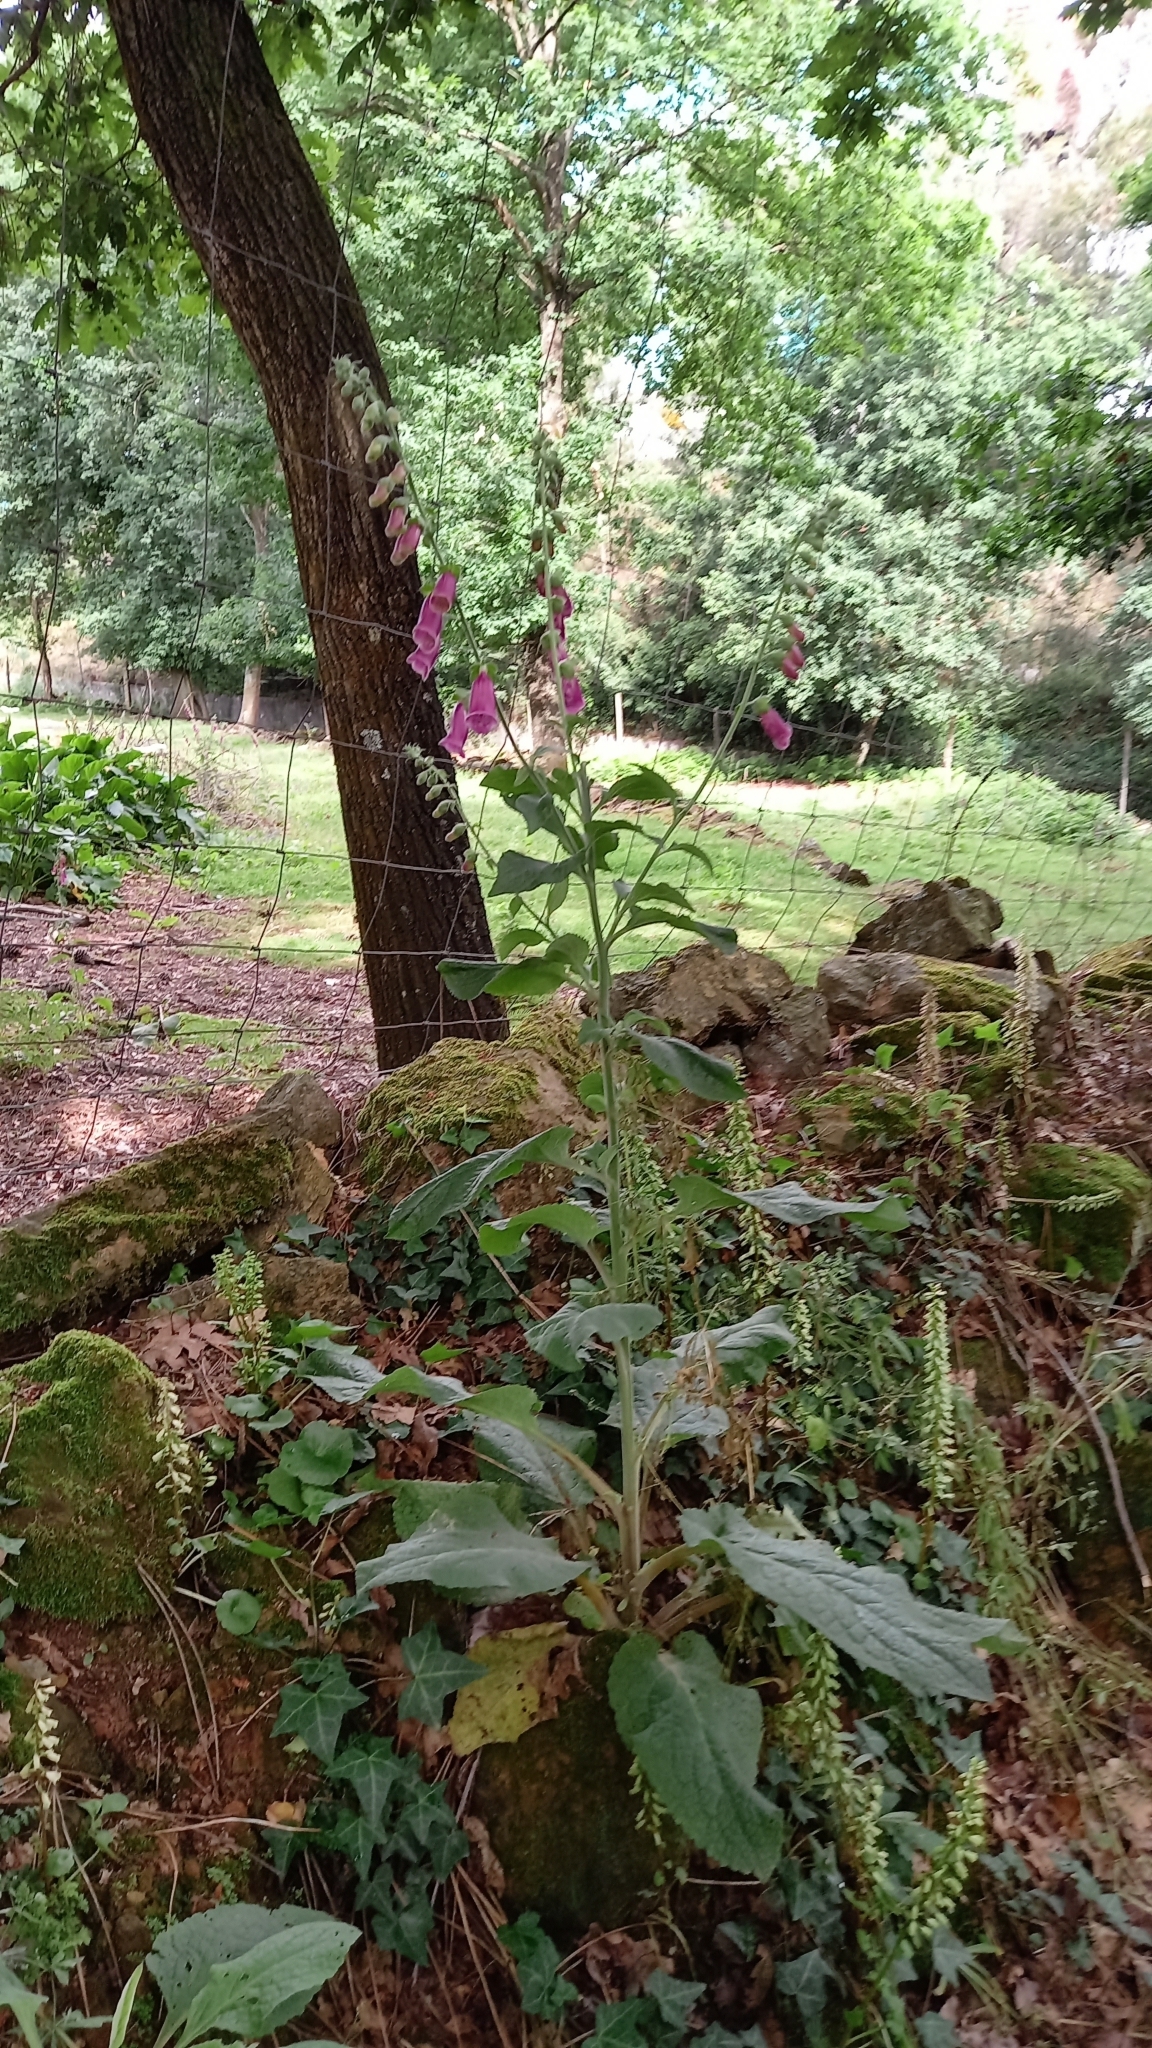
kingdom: Plantae
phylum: Tracheophyta
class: Magnoliopsida
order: Lamiales
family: Plantaginaceae
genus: Digitalis
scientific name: Digitalis purpurea
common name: Foxglove
